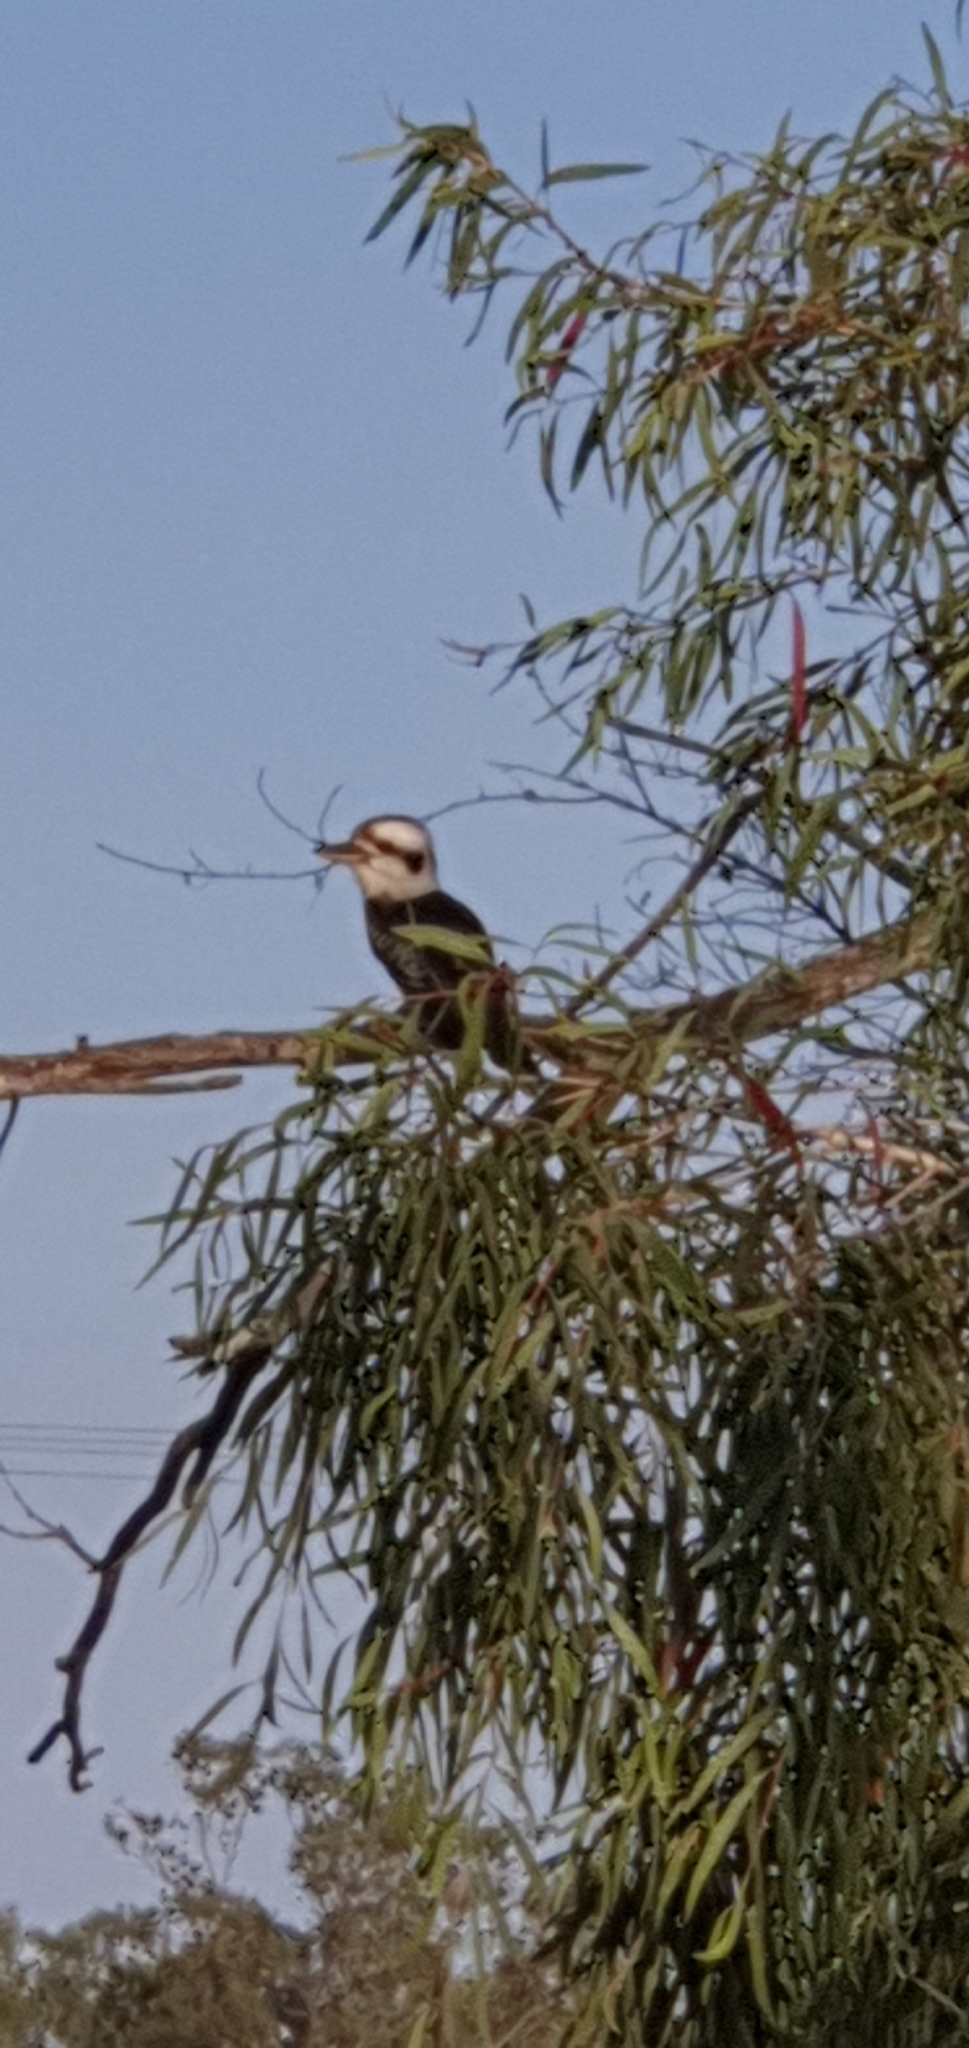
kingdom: Animalia
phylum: Chordata
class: Aves
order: Coraciiformes
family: Alcedinidae
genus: Dacelo
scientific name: Dacelo novaeguineae
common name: Laughing kookaburra
